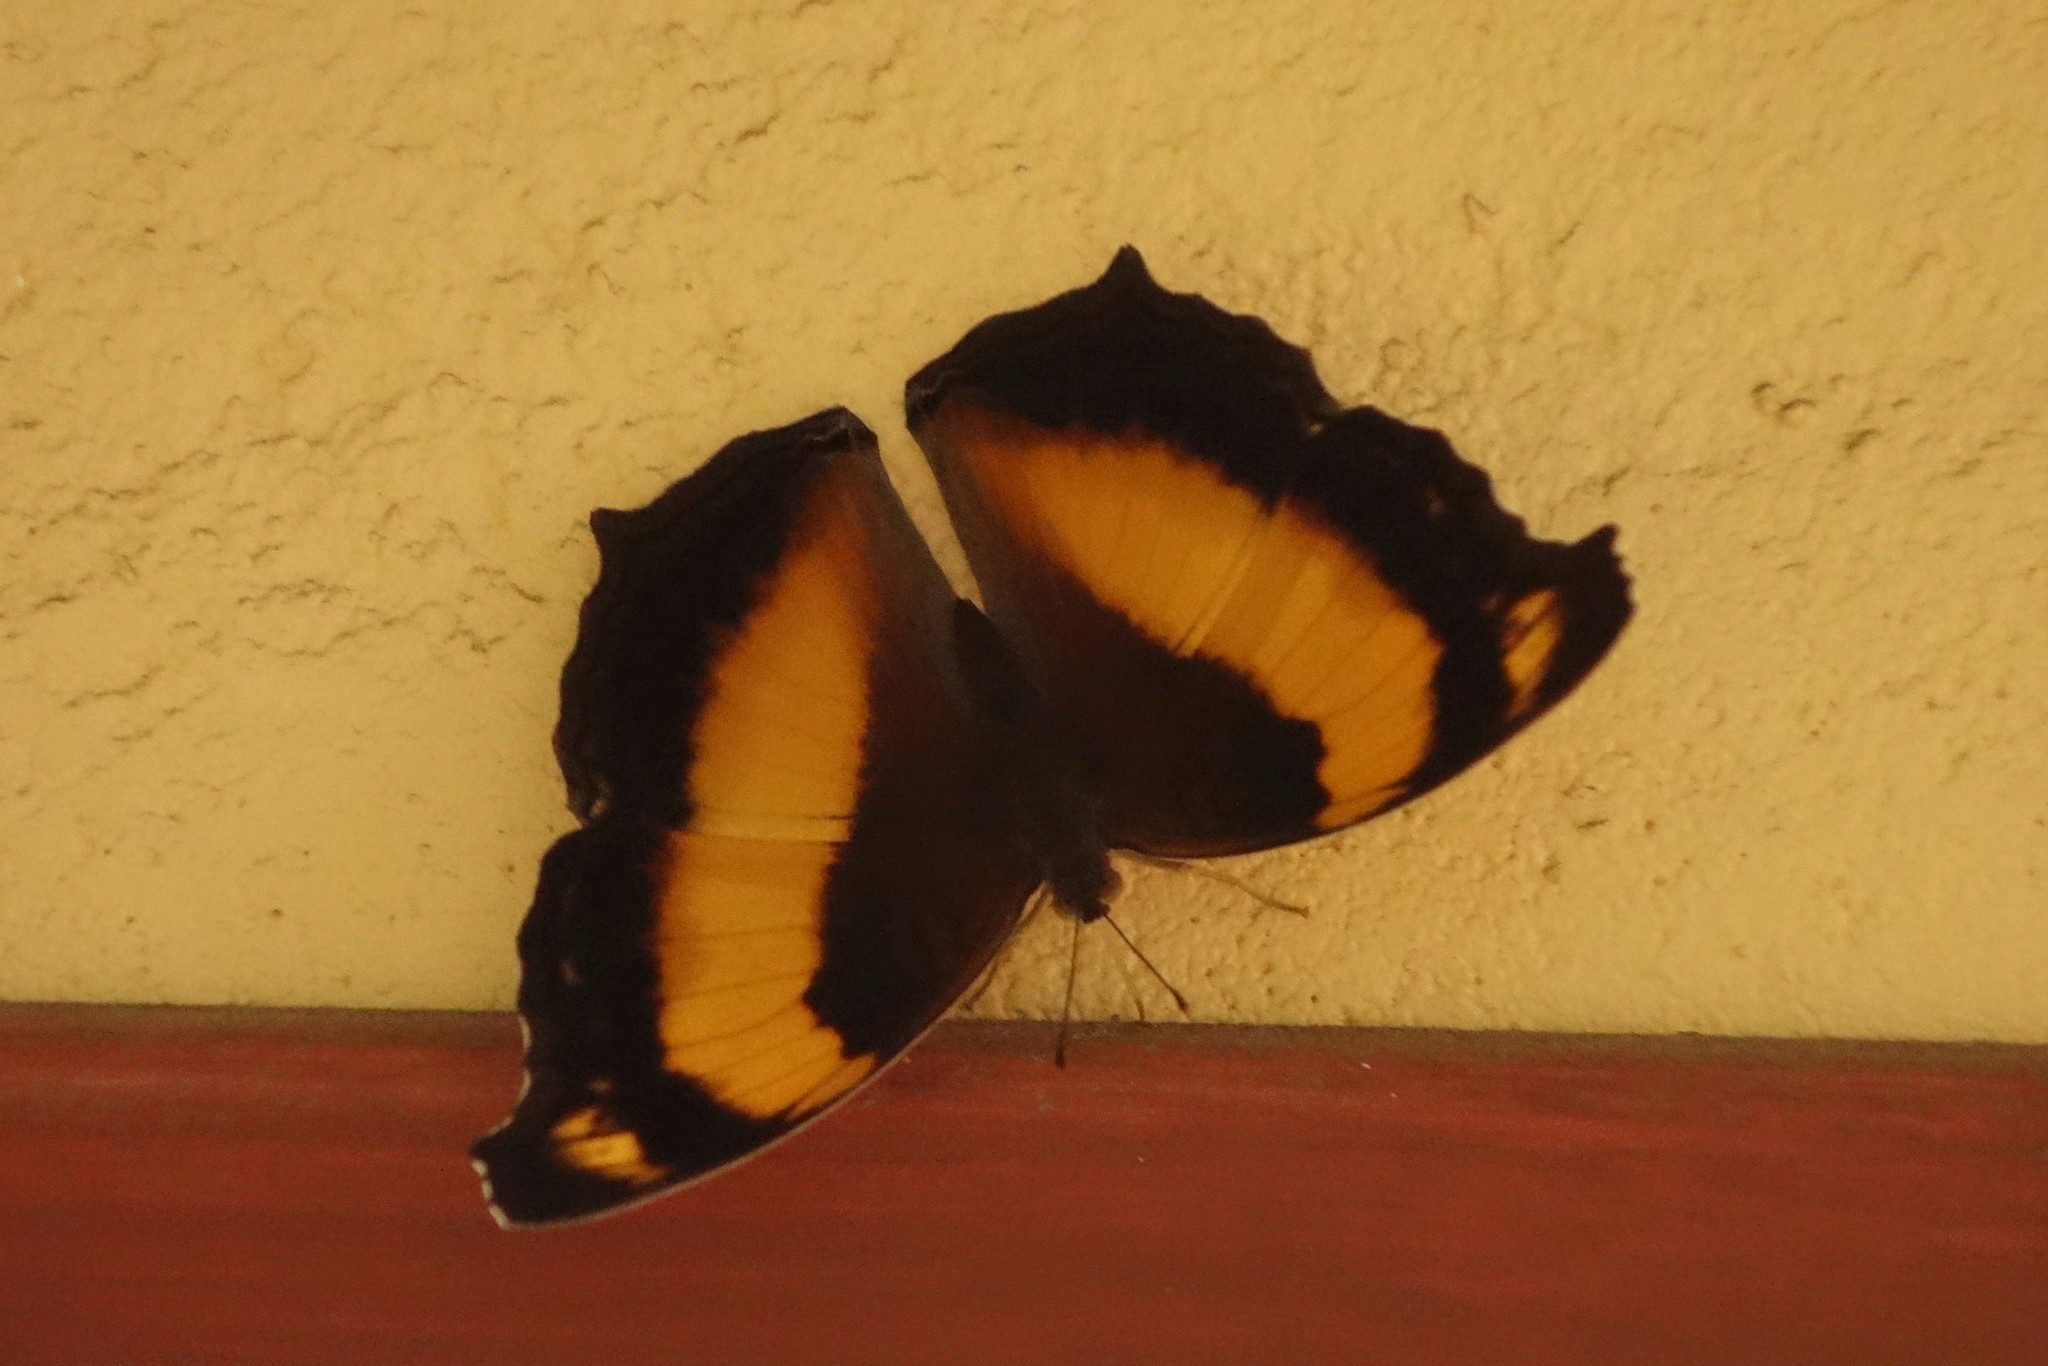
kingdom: Animalia
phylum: Arthropoda
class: Insecta
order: Lepidoptera
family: Nymphalidae
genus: Yoma
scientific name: Yoma sabina
